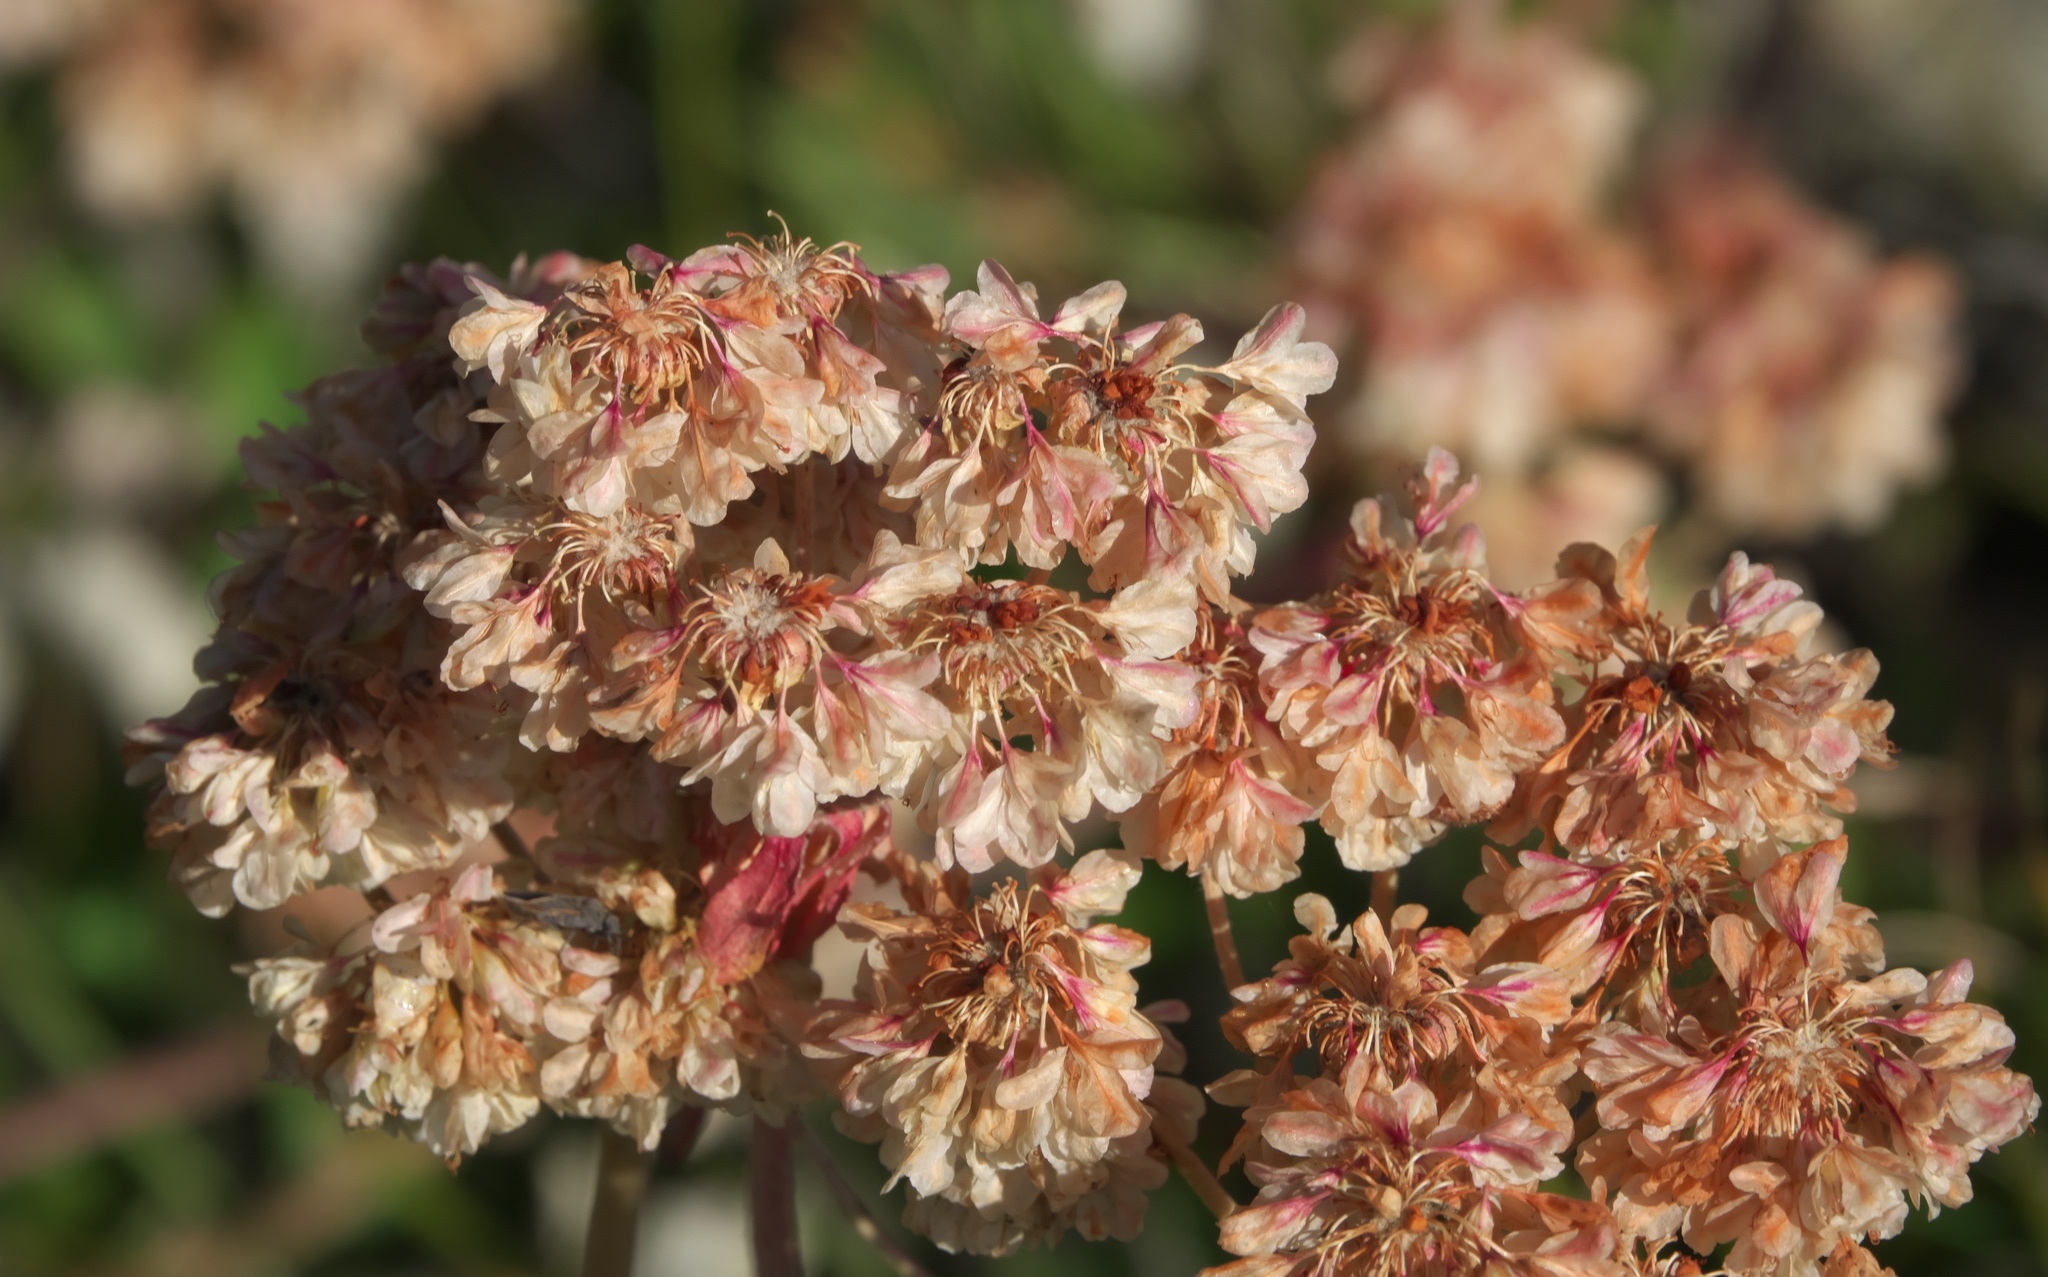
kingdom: Plantae
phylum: Tracheophyta
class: Magnoliopsida
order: Caryophyllales
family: Polygonaceae
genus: Eriogonum
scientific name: Eriogonum umbellatum
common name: Sulfur-buckwheat
